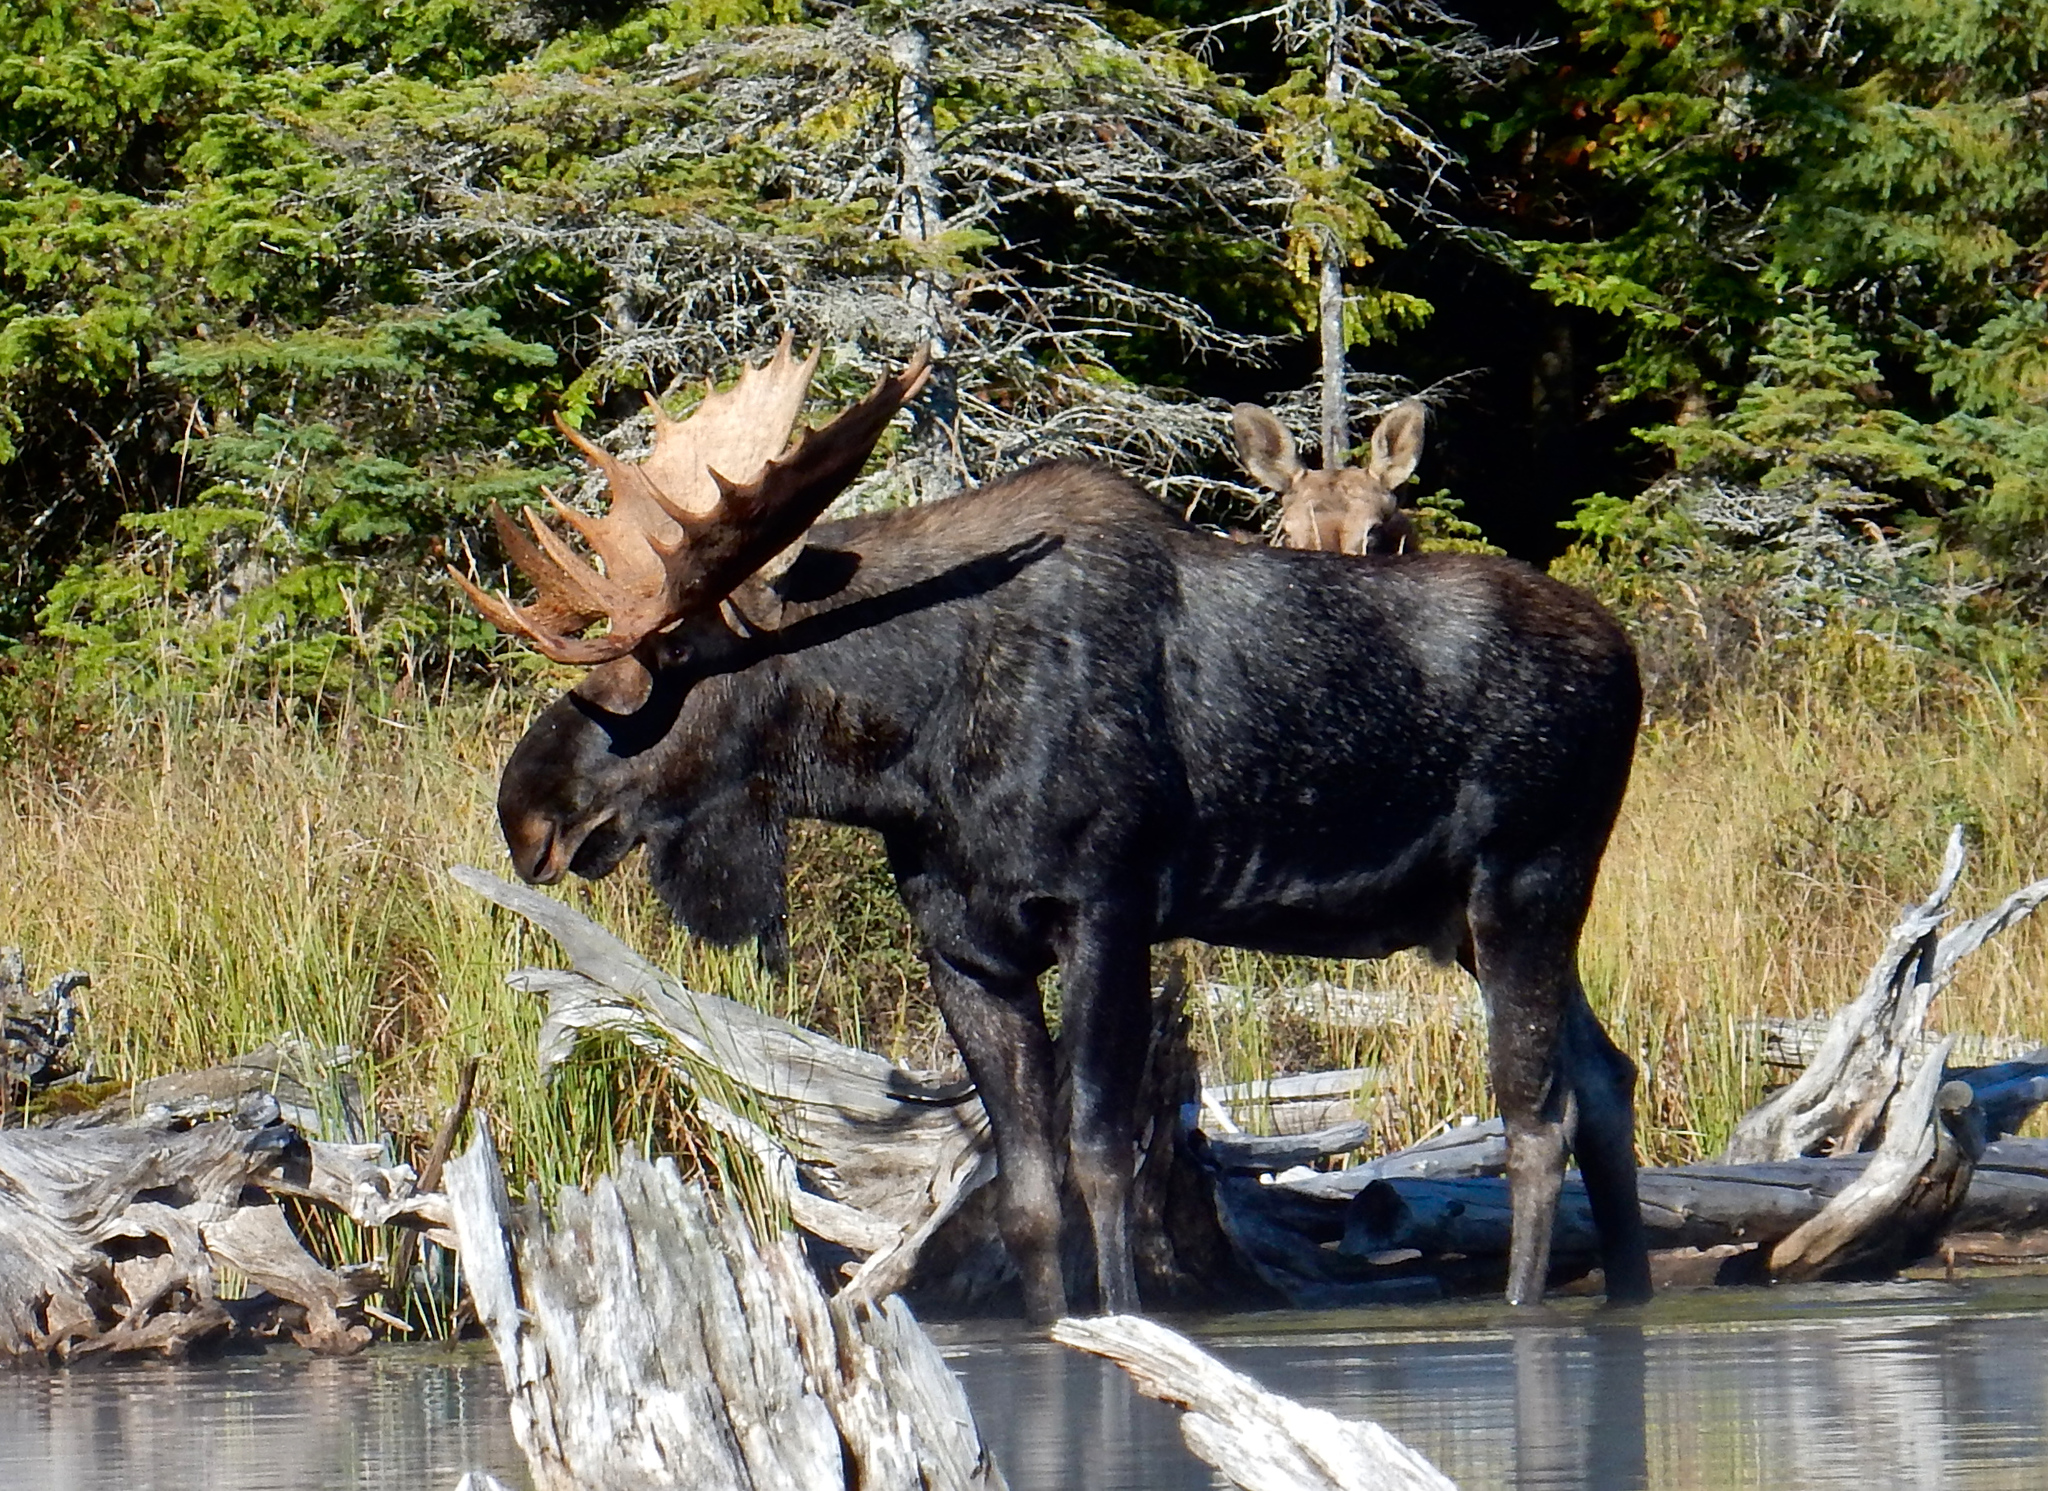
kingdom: Animalia
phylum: Chordata
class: Mammalia
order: Artiodactyla
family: Cervidae
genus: Alces
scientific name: Alces alces
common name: Moose
